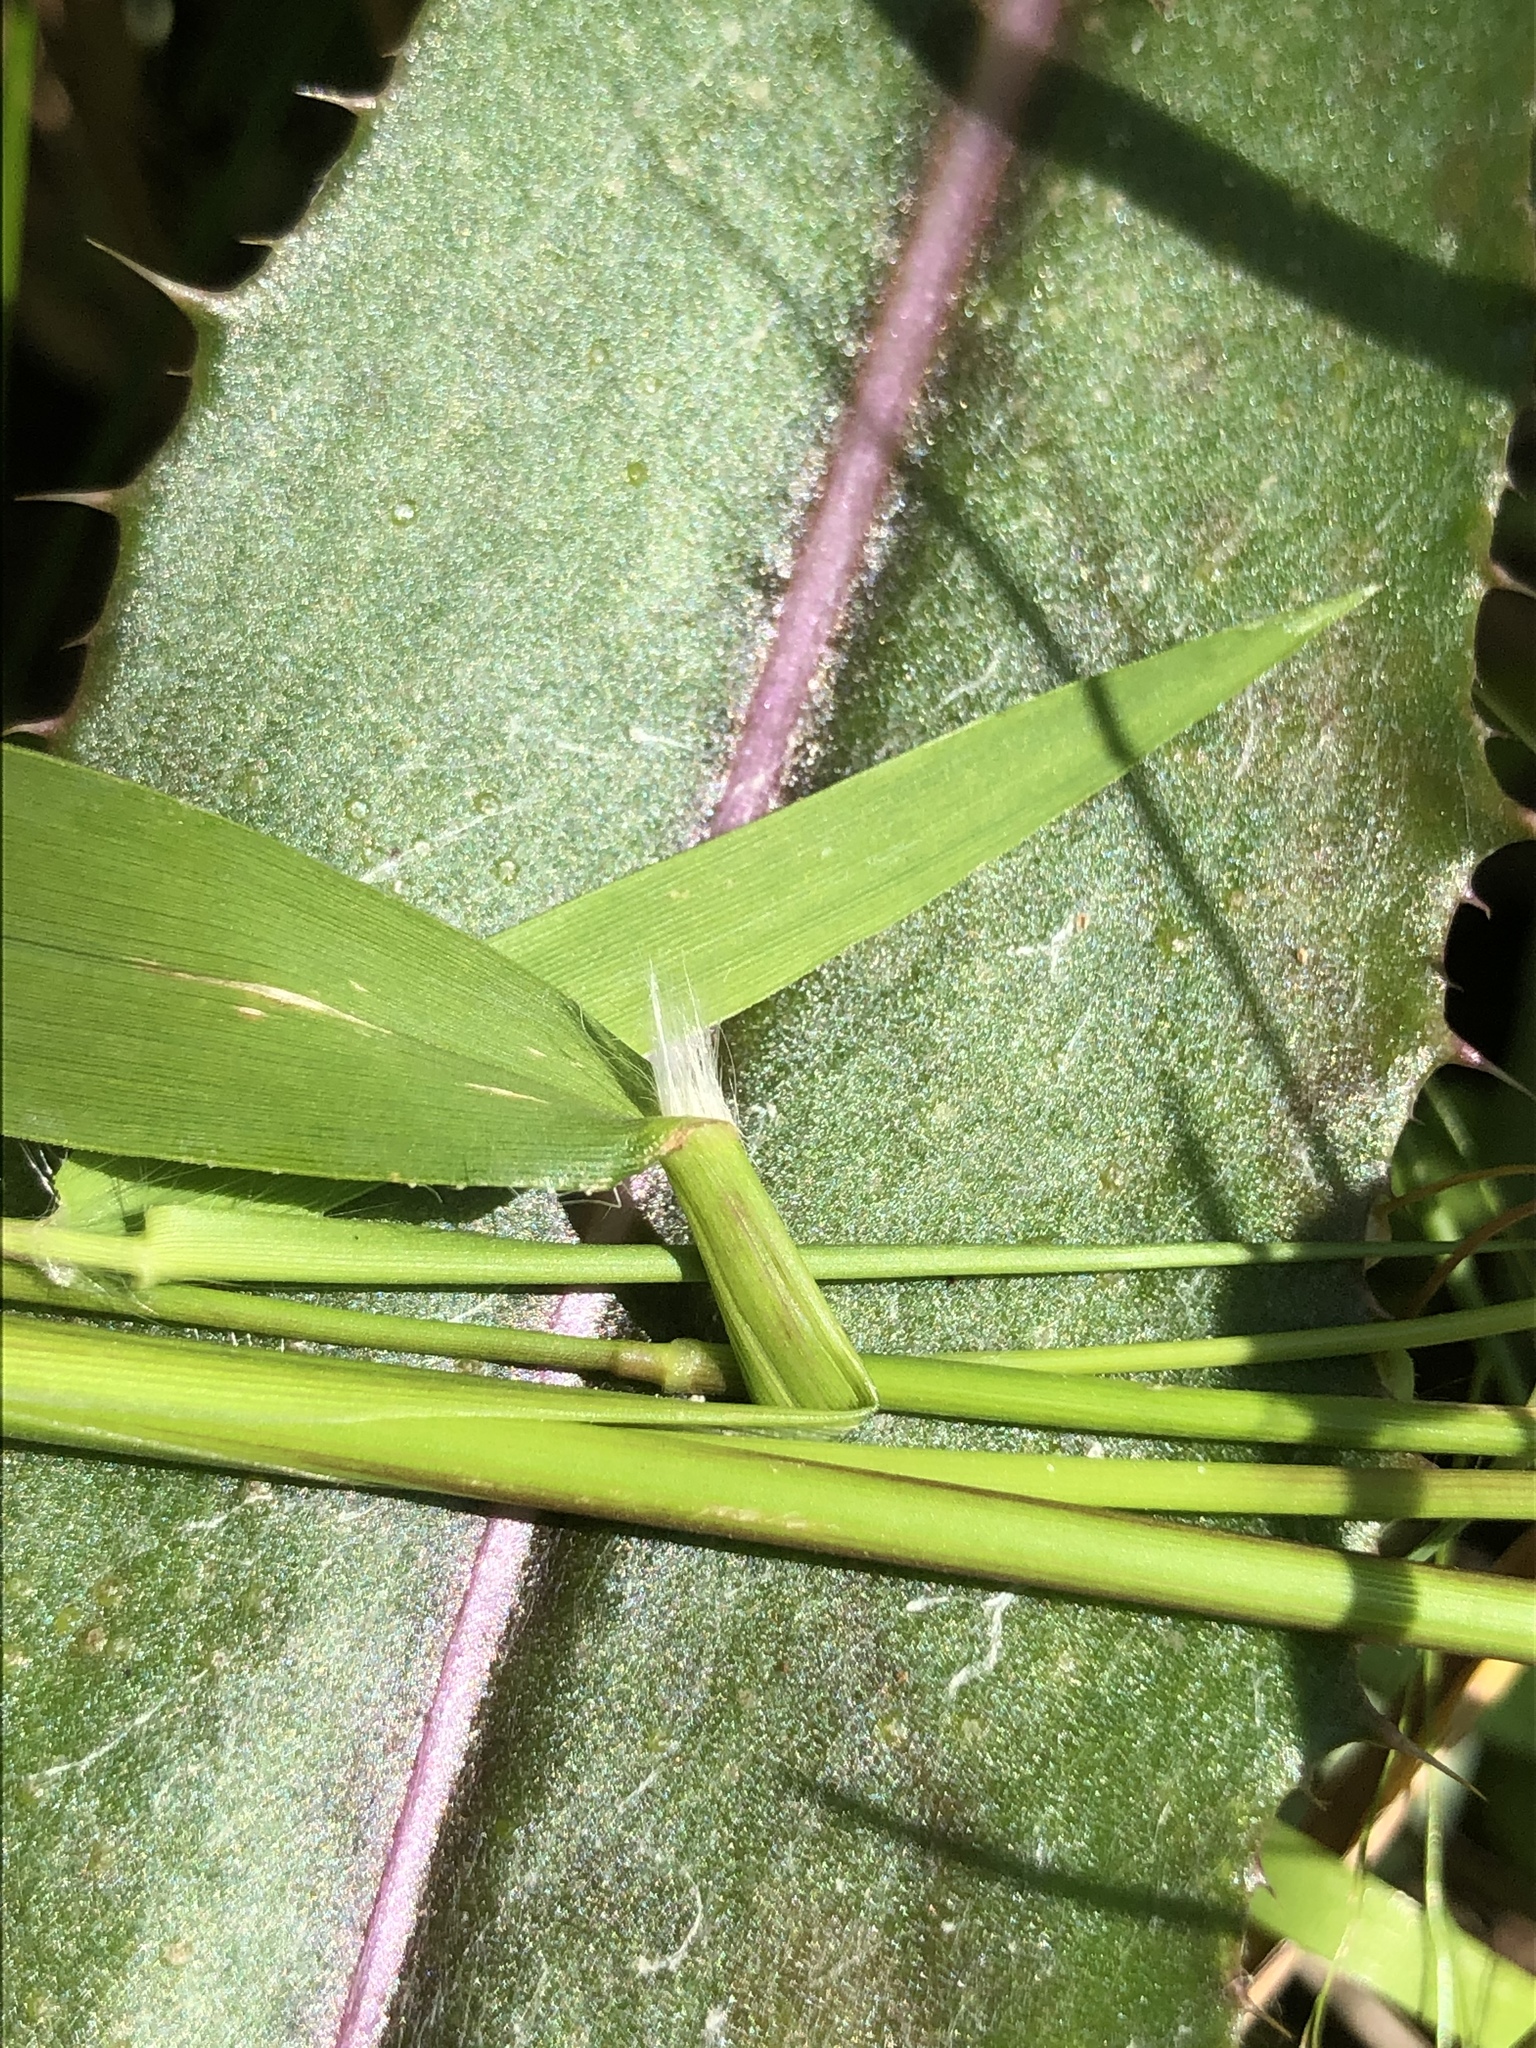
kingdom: Plantae
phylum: Tracheophyta
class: Liliopsida
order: Poales
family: Poaceae
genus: Dichanthelium
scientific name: Dichanthelium lindheimeri
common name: Lindheimer's panicgrass
